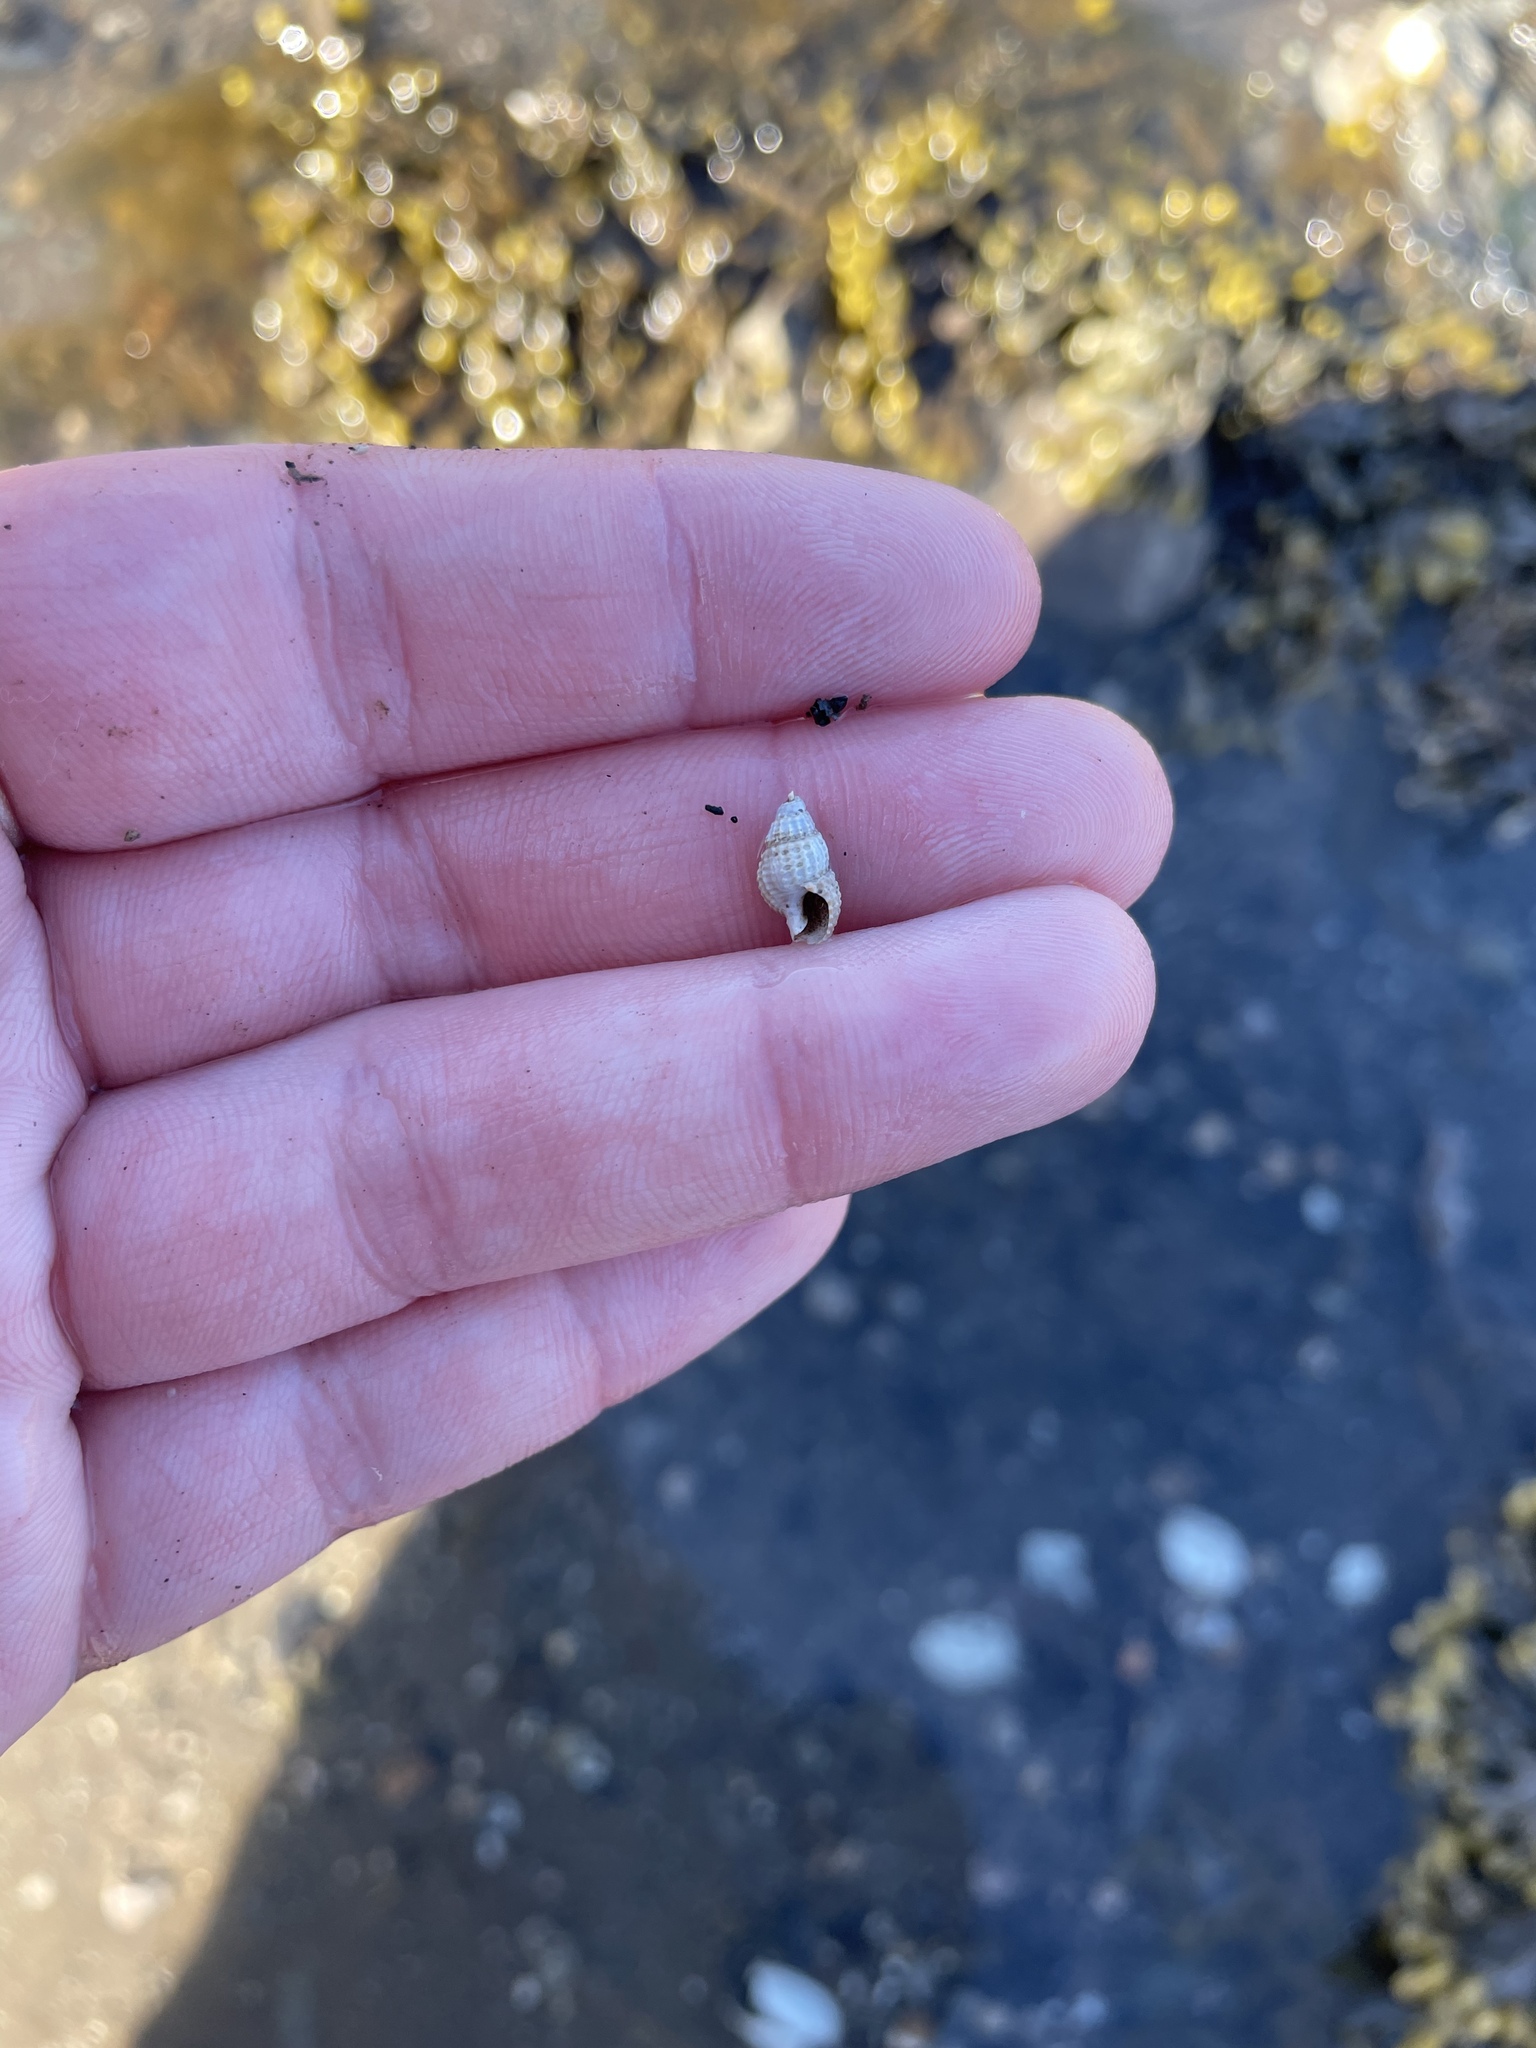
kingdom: Animalia
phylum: Mollusca
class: Gastropoda
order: Neogastropoda
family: Nassariidae
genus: Ilyanassa
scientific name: Ilyanassa trivittata
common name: Three-line mudsnail
